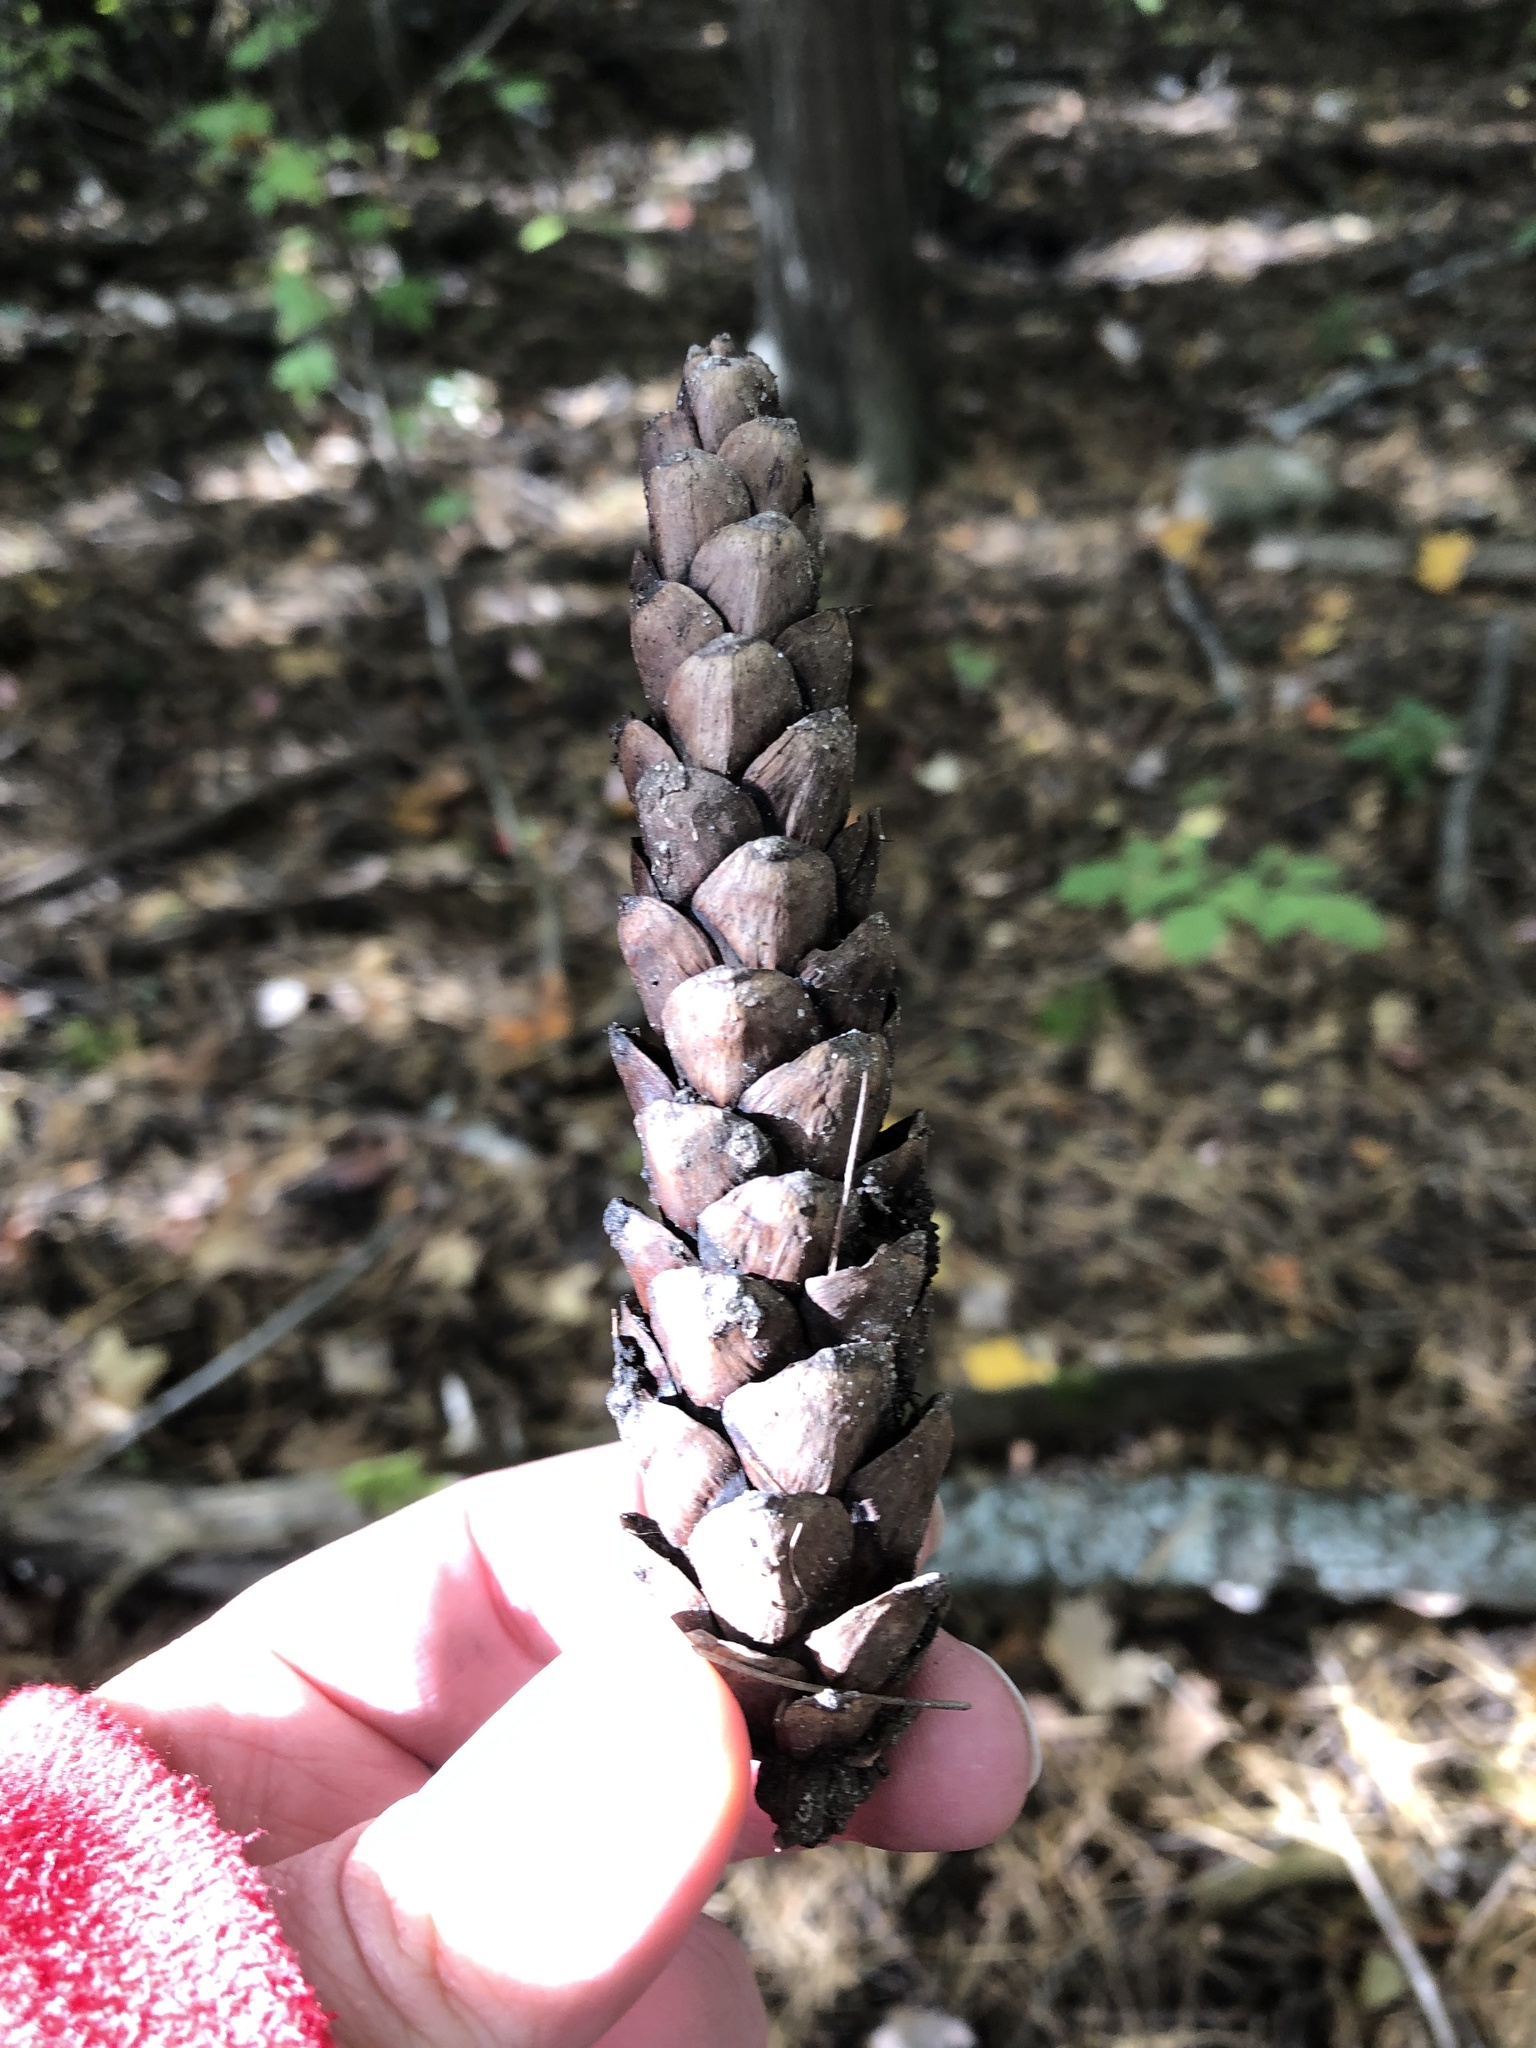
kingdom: Plantae
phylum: Tracheophyta
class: Pinopsida
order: Pinales
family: Pinaceae
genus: Pinus
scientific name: Pinus strobus
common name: Weymouth pine
